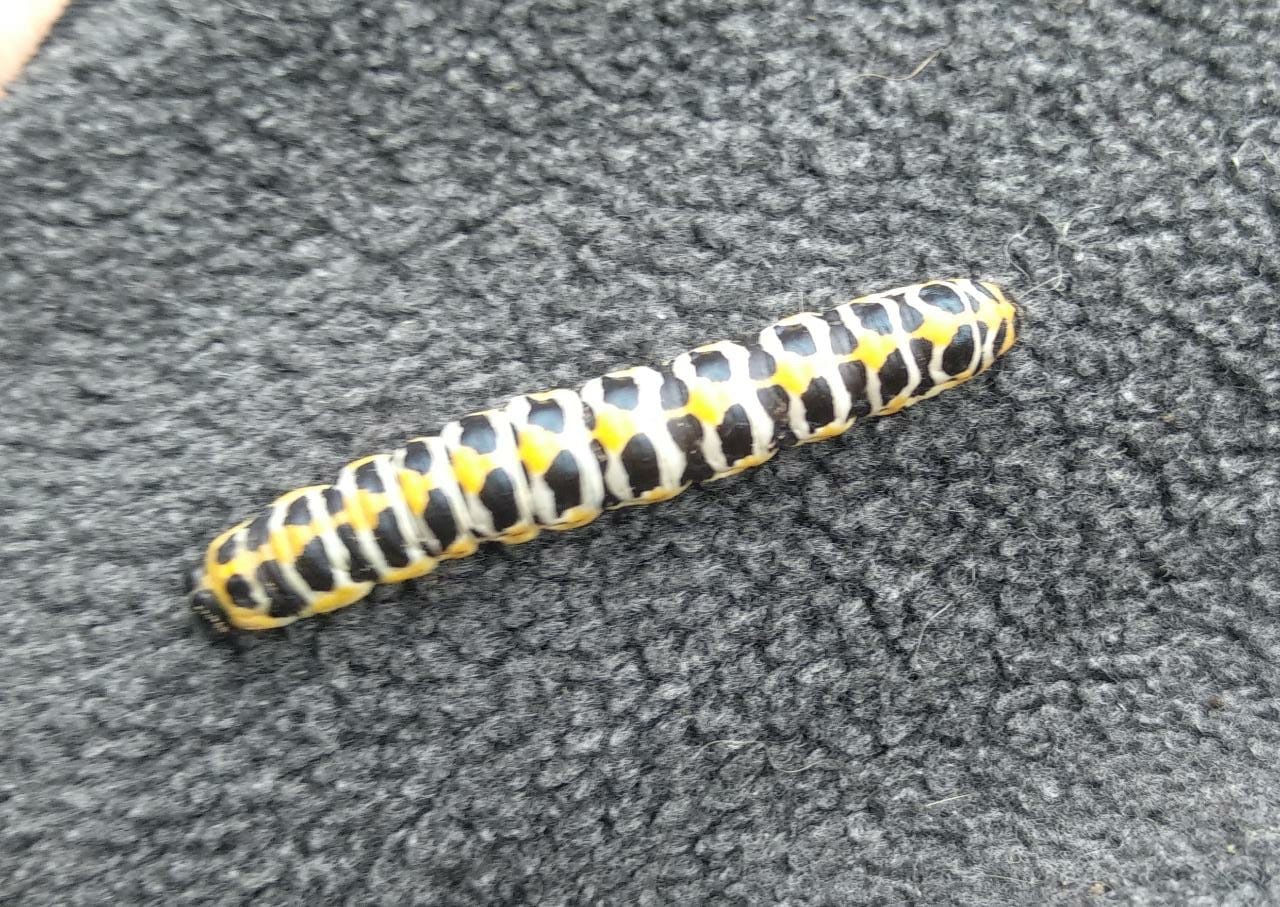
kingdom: Animalia
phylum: Arthropoda
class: Insecta
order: Lepidoptera
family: Noctuidae
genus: Cucullia
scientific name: Cucullia pustulata
